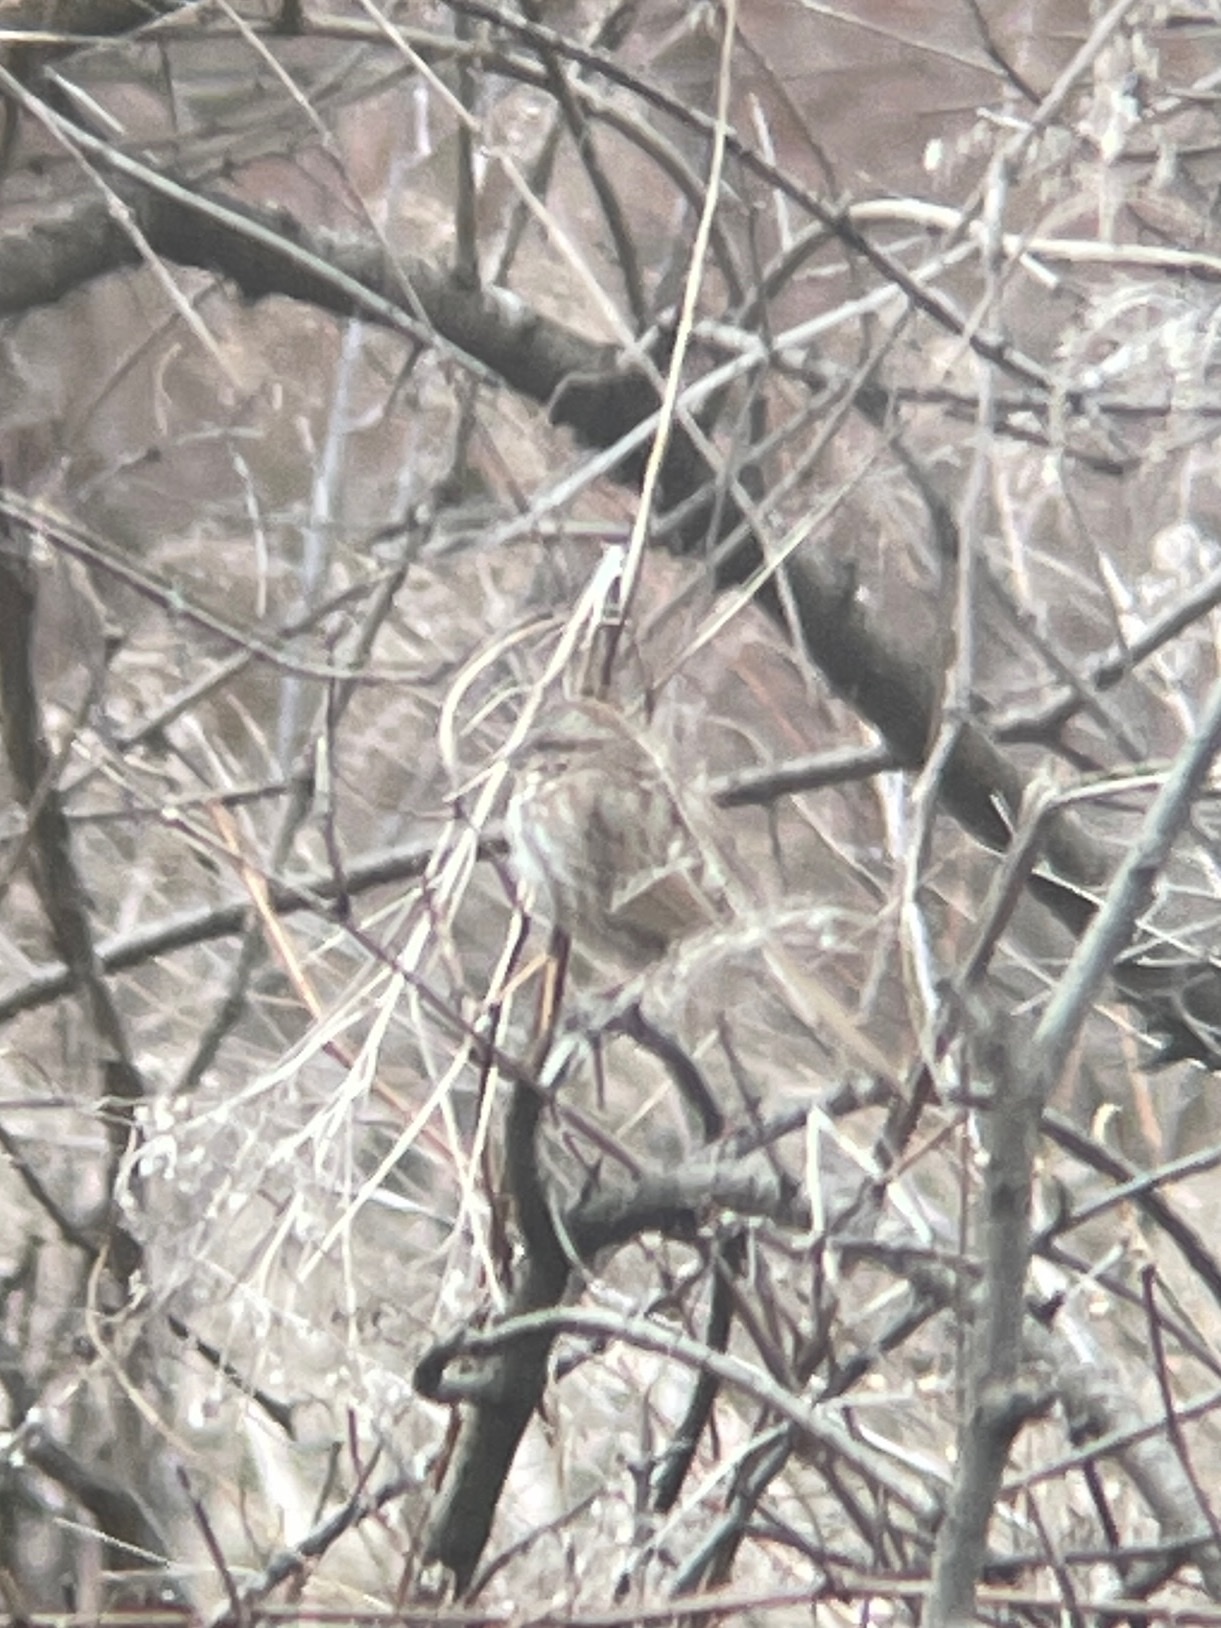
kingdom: Animalia
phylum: Chordata
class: Aves
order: Passeriformes
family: Passerellidae
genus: Melospiza
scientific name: Melospiza melodia
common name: Song sparrow
